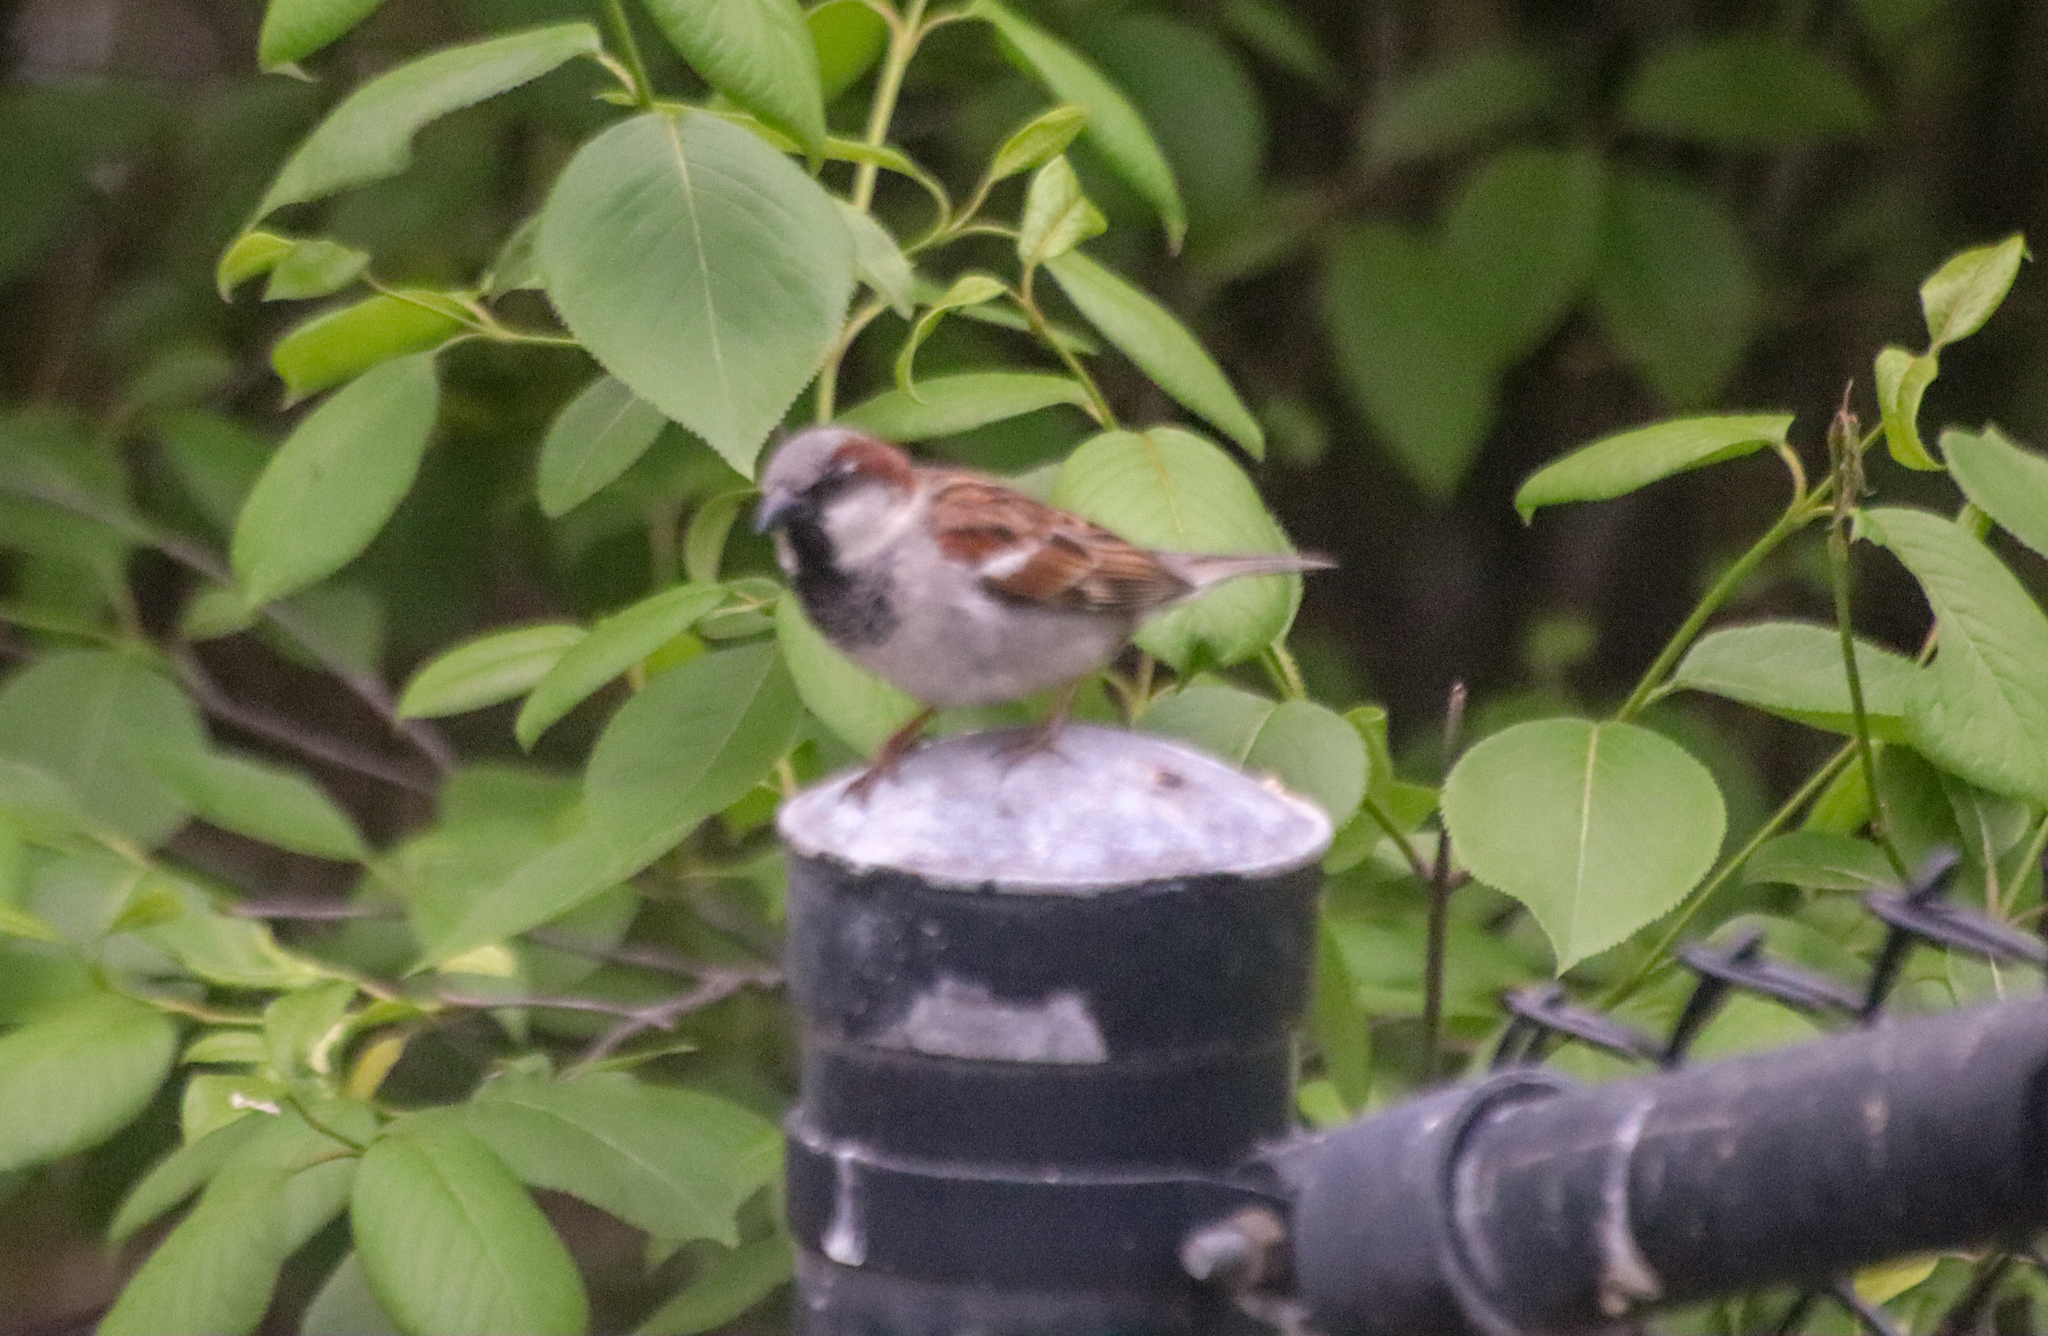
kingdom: Animalia
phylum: Chordata
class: Aves
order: Passeriformes
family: Passeridae
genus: Passer
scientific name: Passer domesticus
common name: House sparrow
